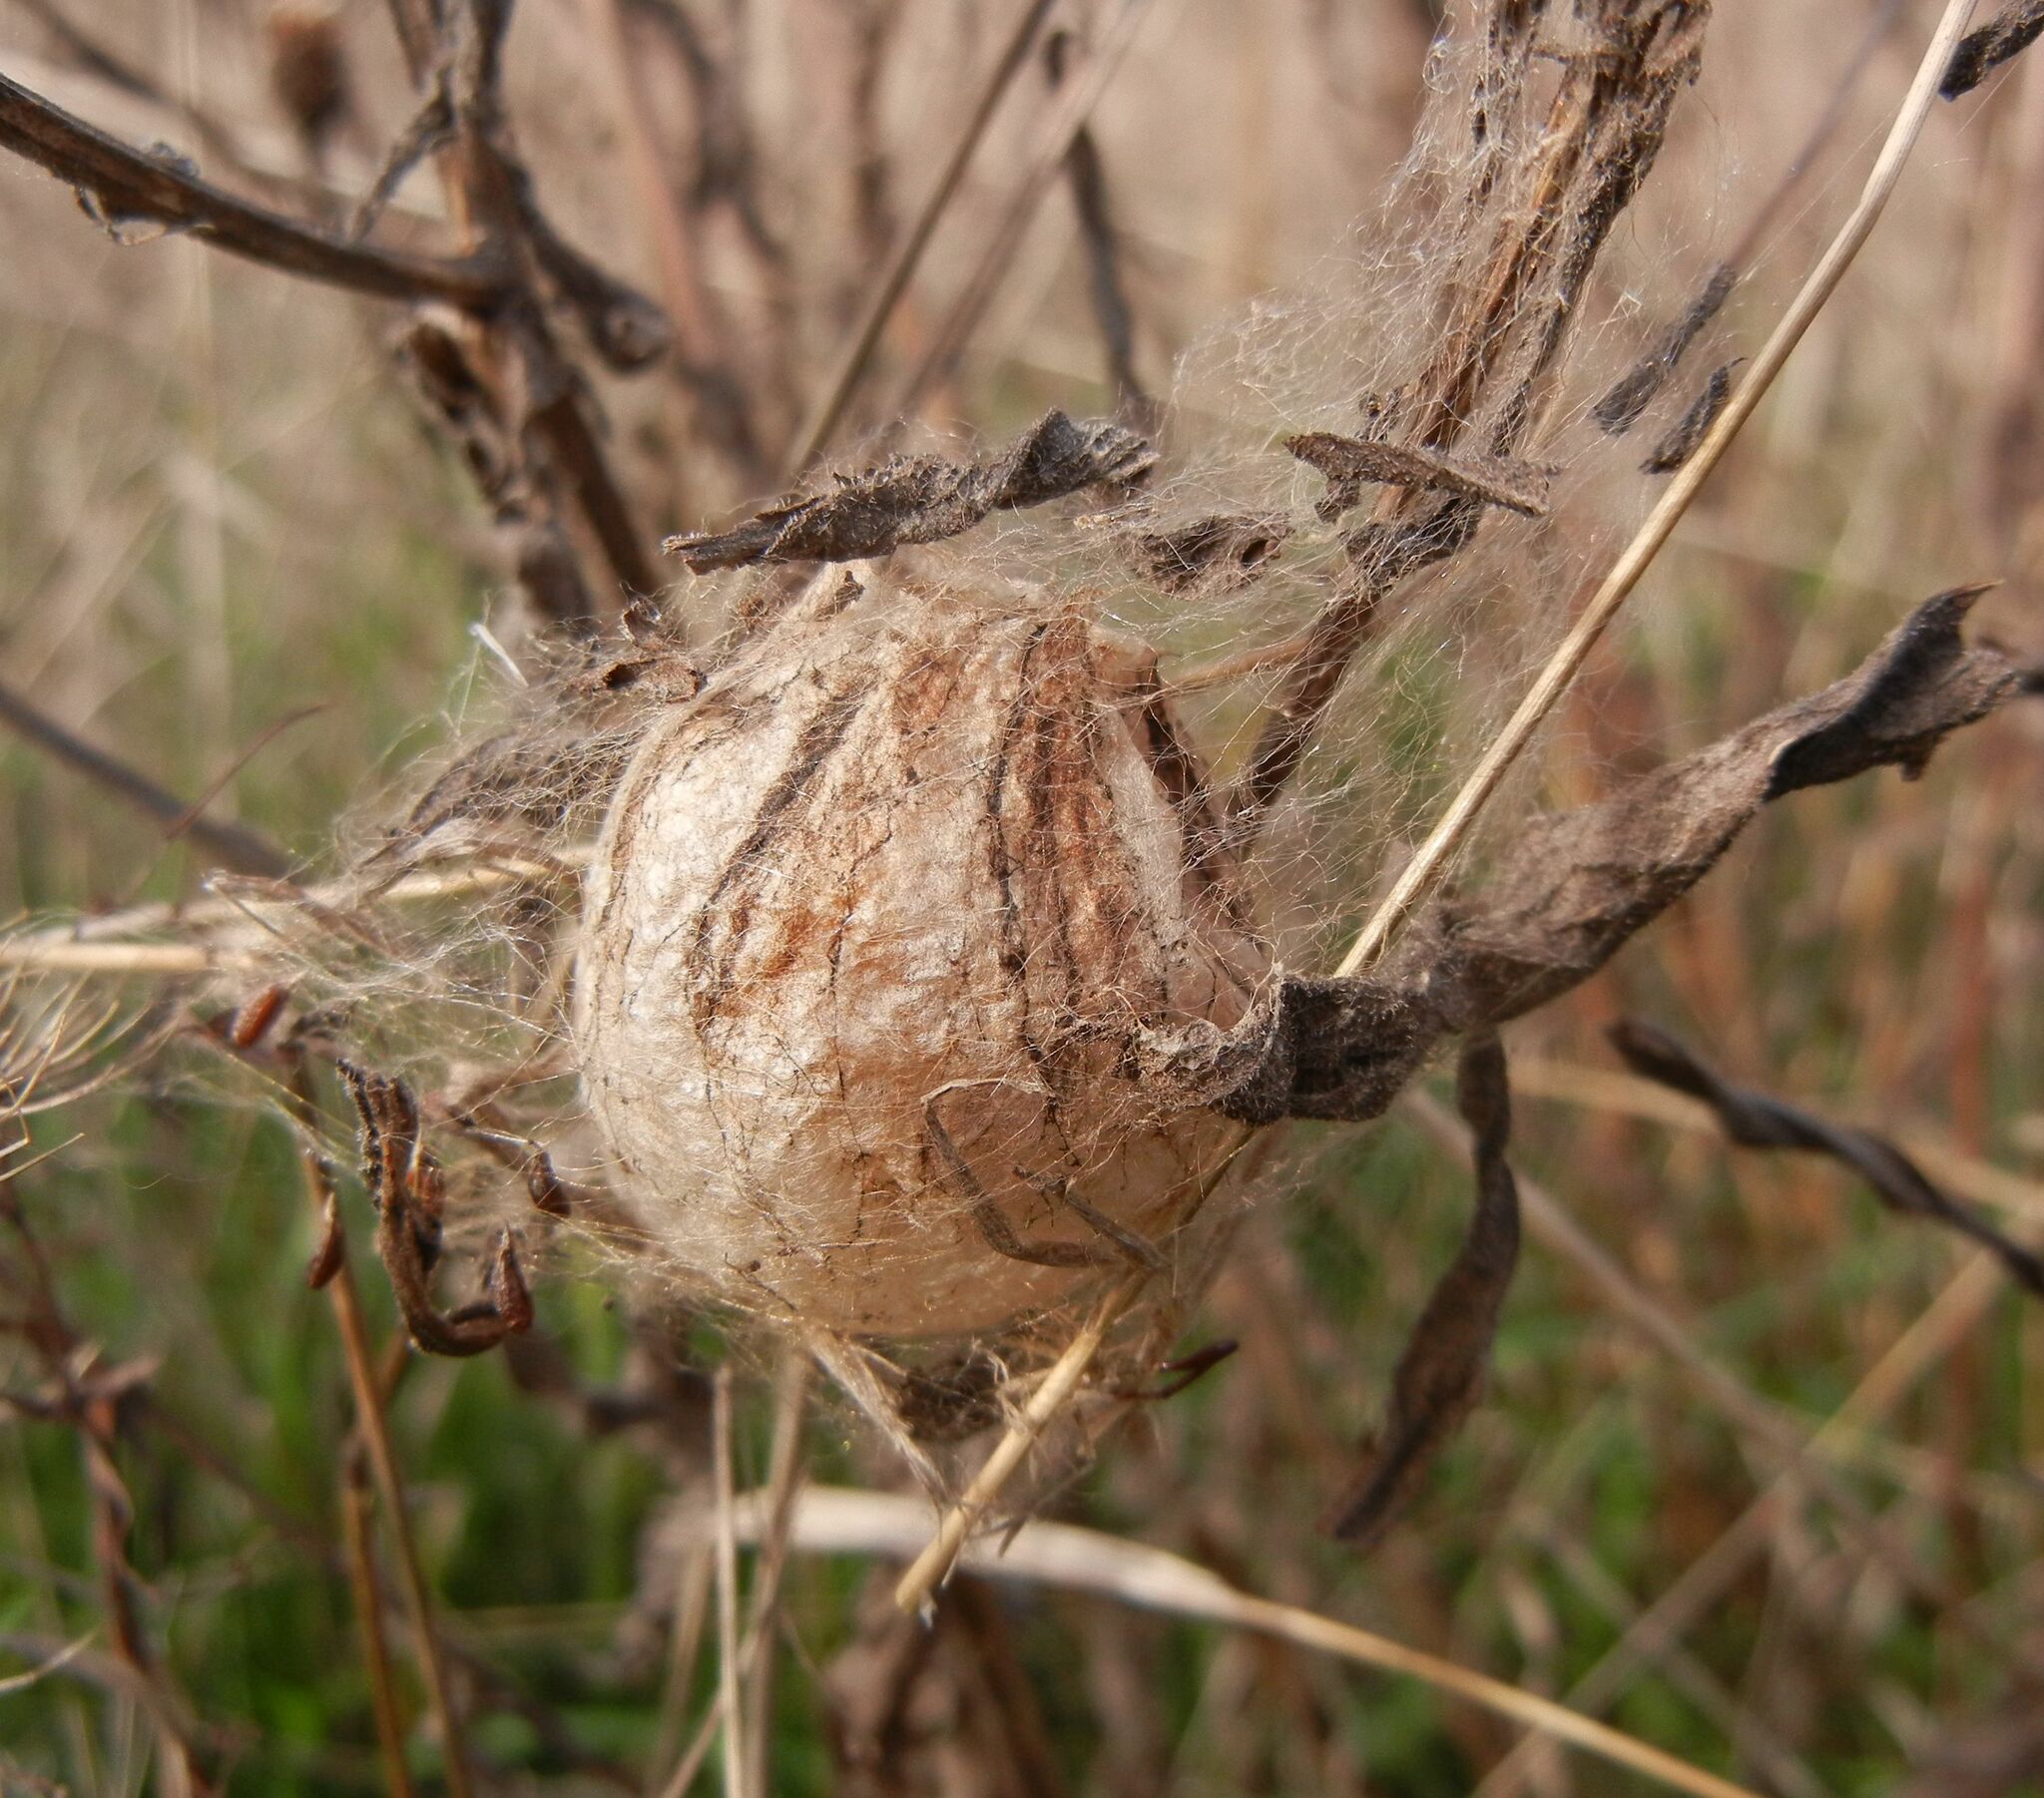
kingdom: Animalia
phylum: Arthropoda
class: Arachnida
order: Araneae
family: Araneidae
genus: Argiope
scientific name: Argiope bruennichi
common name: Wasp spider
